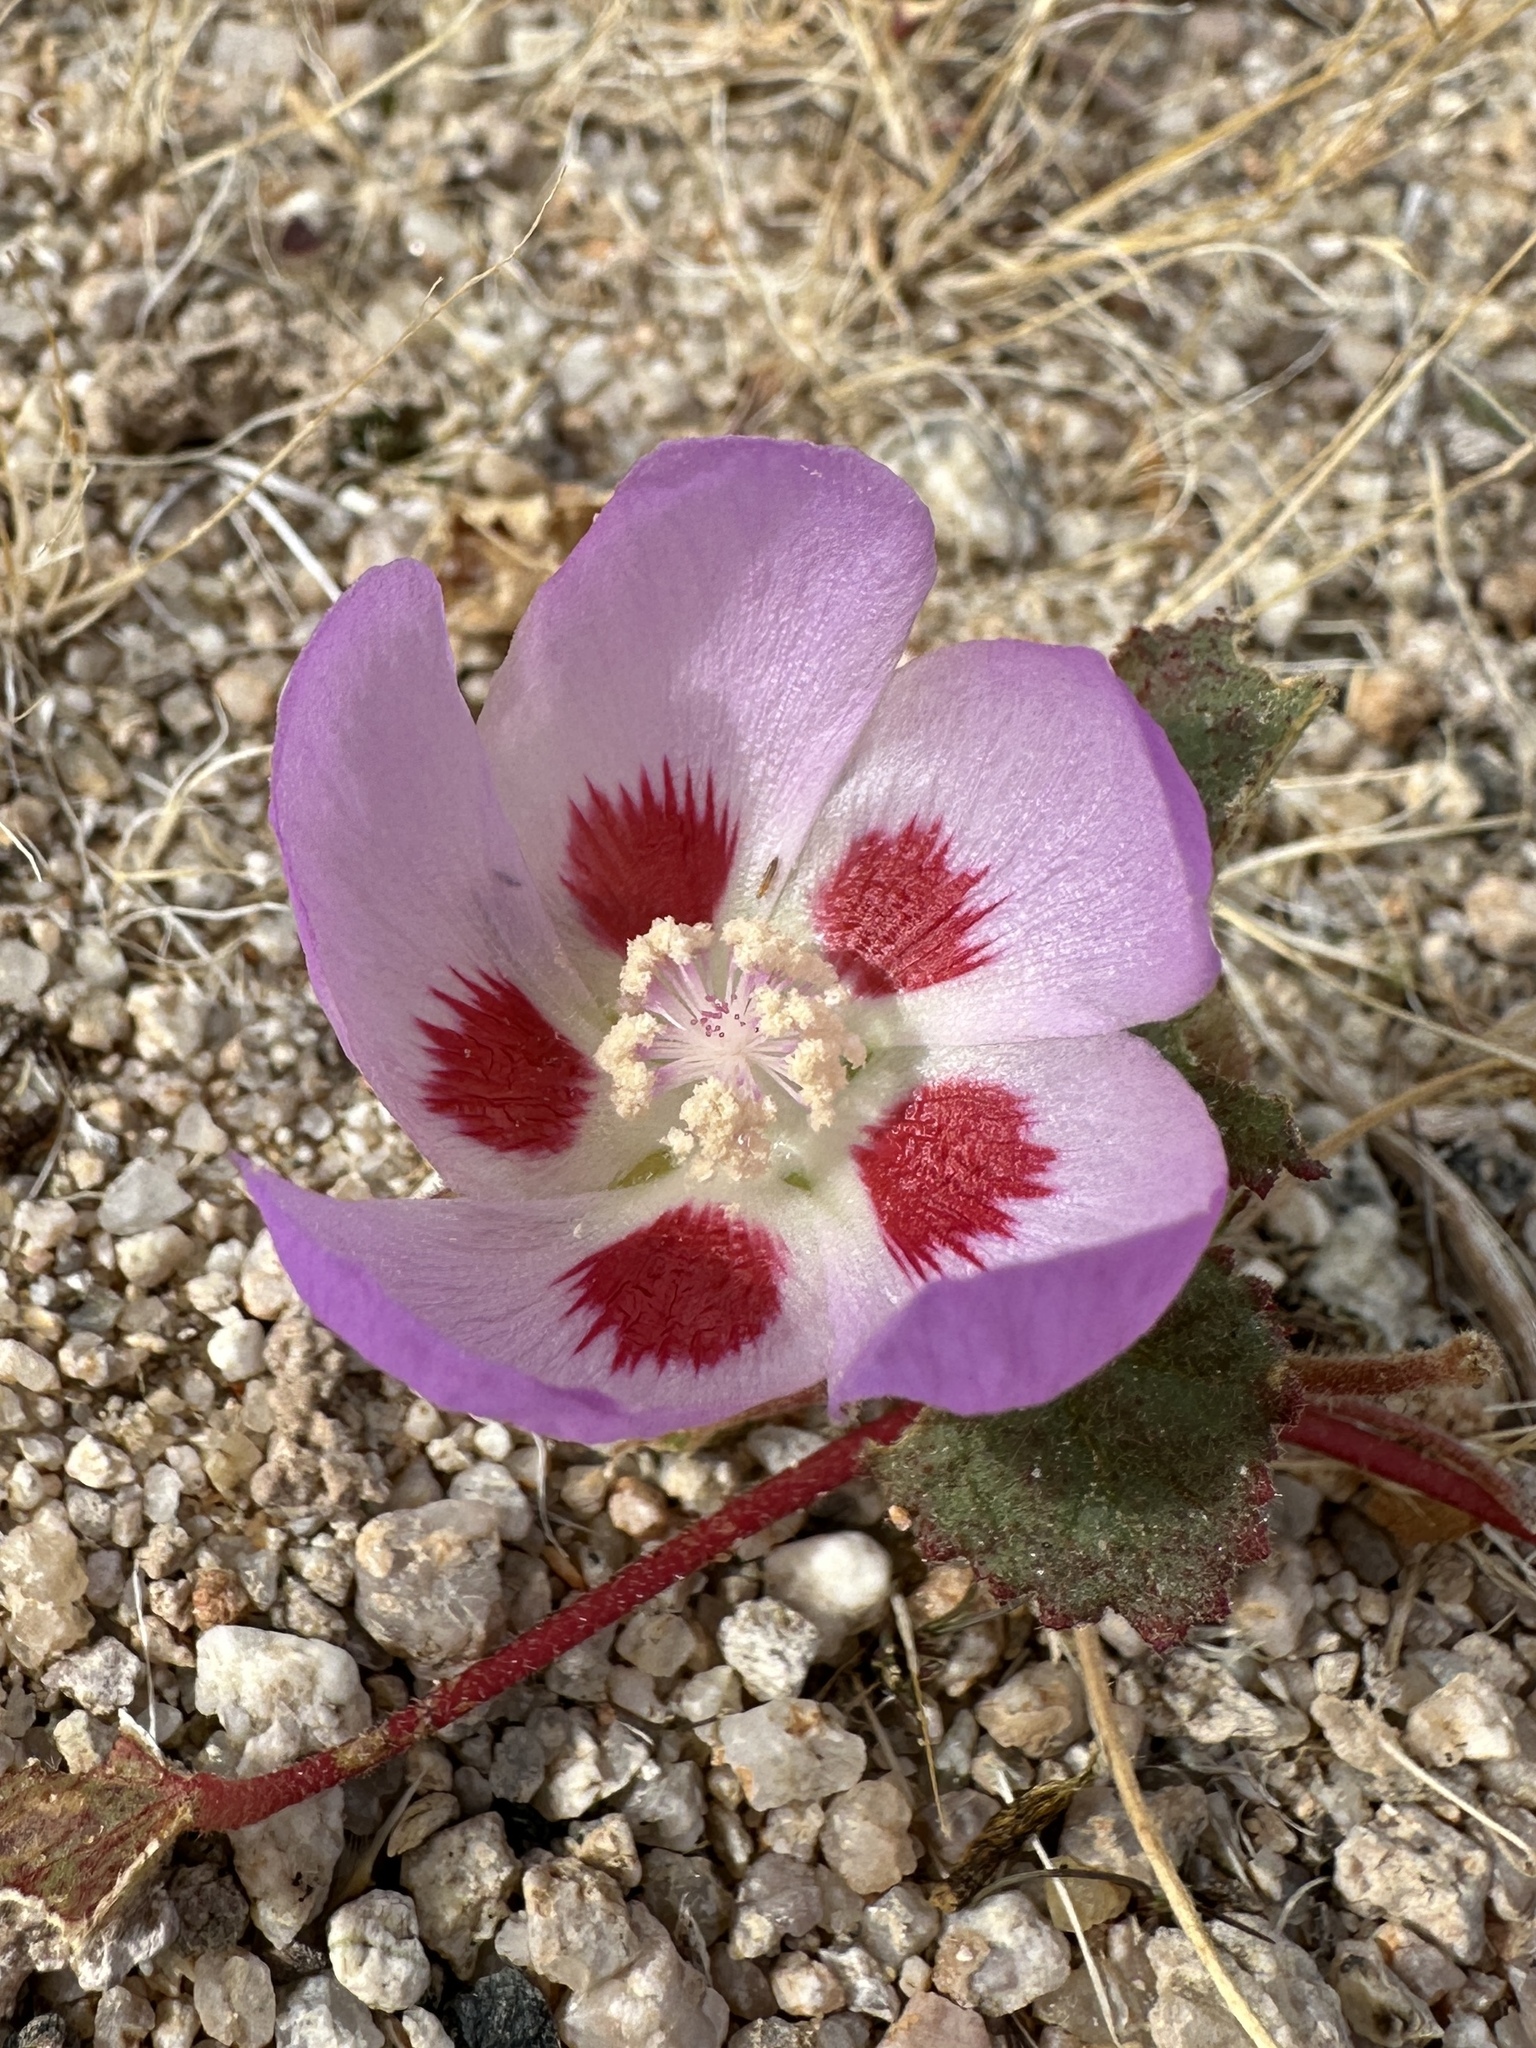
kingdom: Plantae
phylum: Tracheophyta
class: Magnoliopsida
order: Malvales
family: Malvaceae
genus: Eremalche
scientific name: Eremalche rotundifolia
